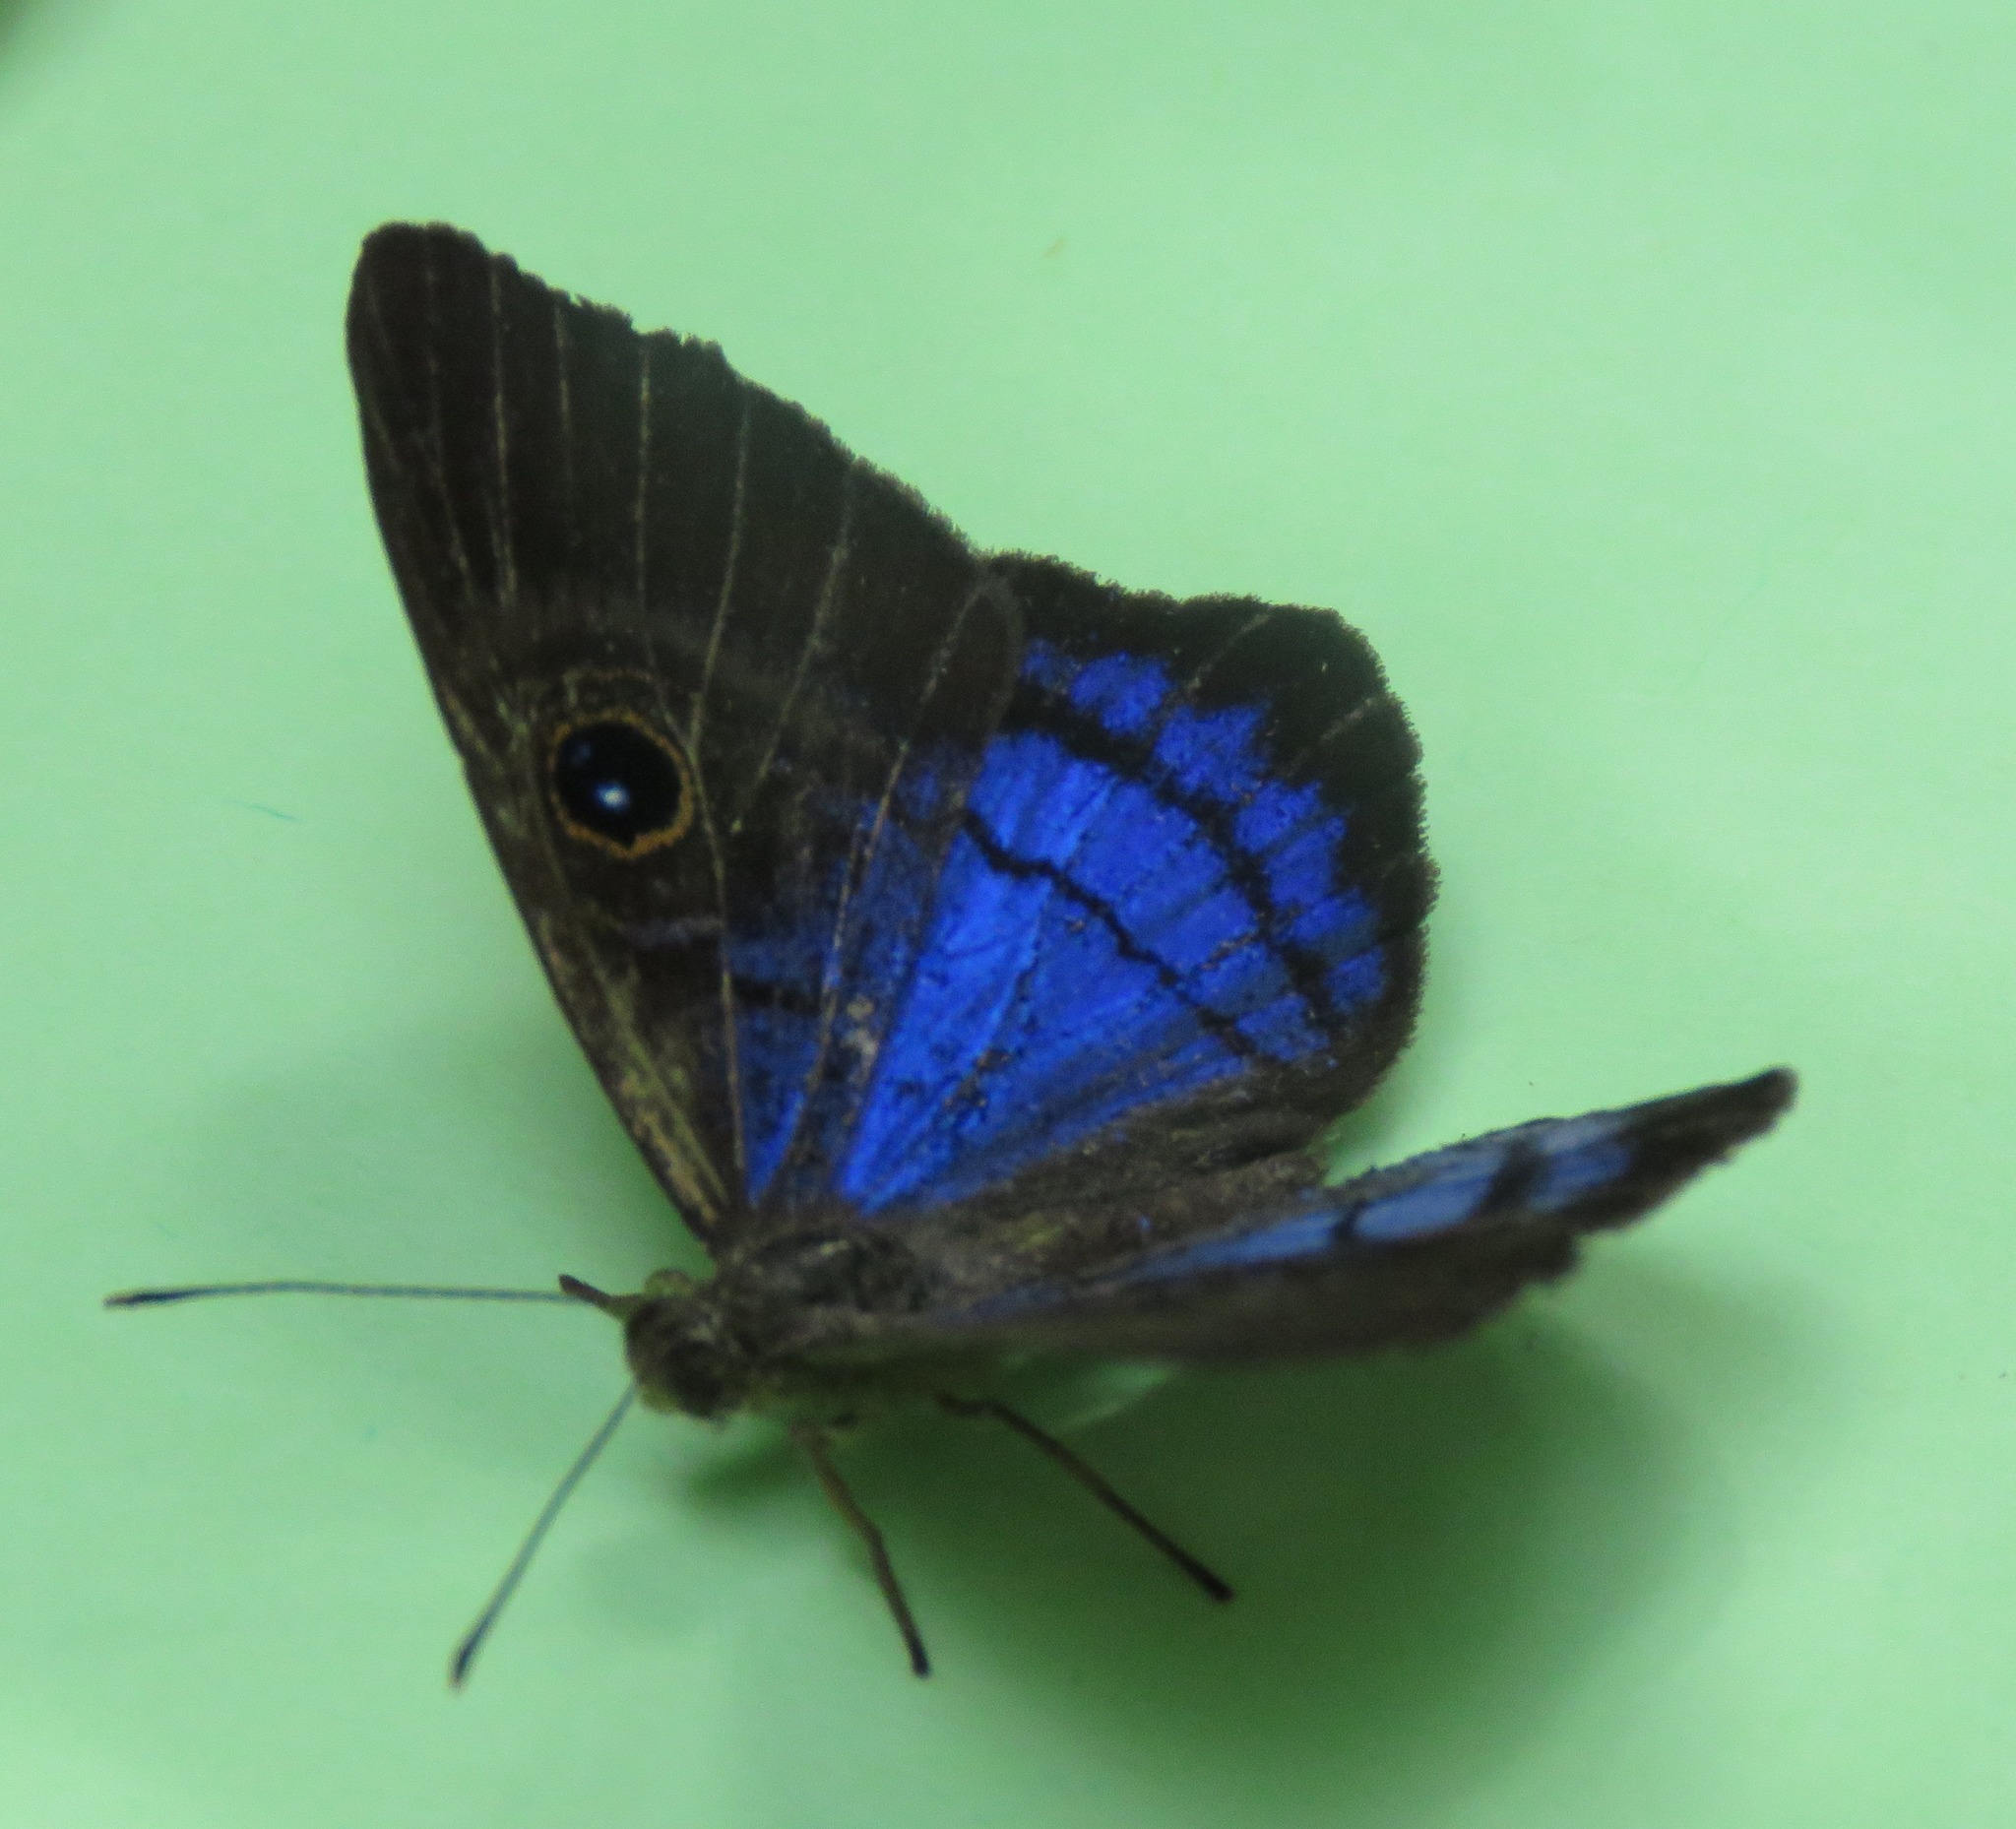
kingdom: Animalia
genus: Mesosemia
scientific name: Mesosemia lamachus
